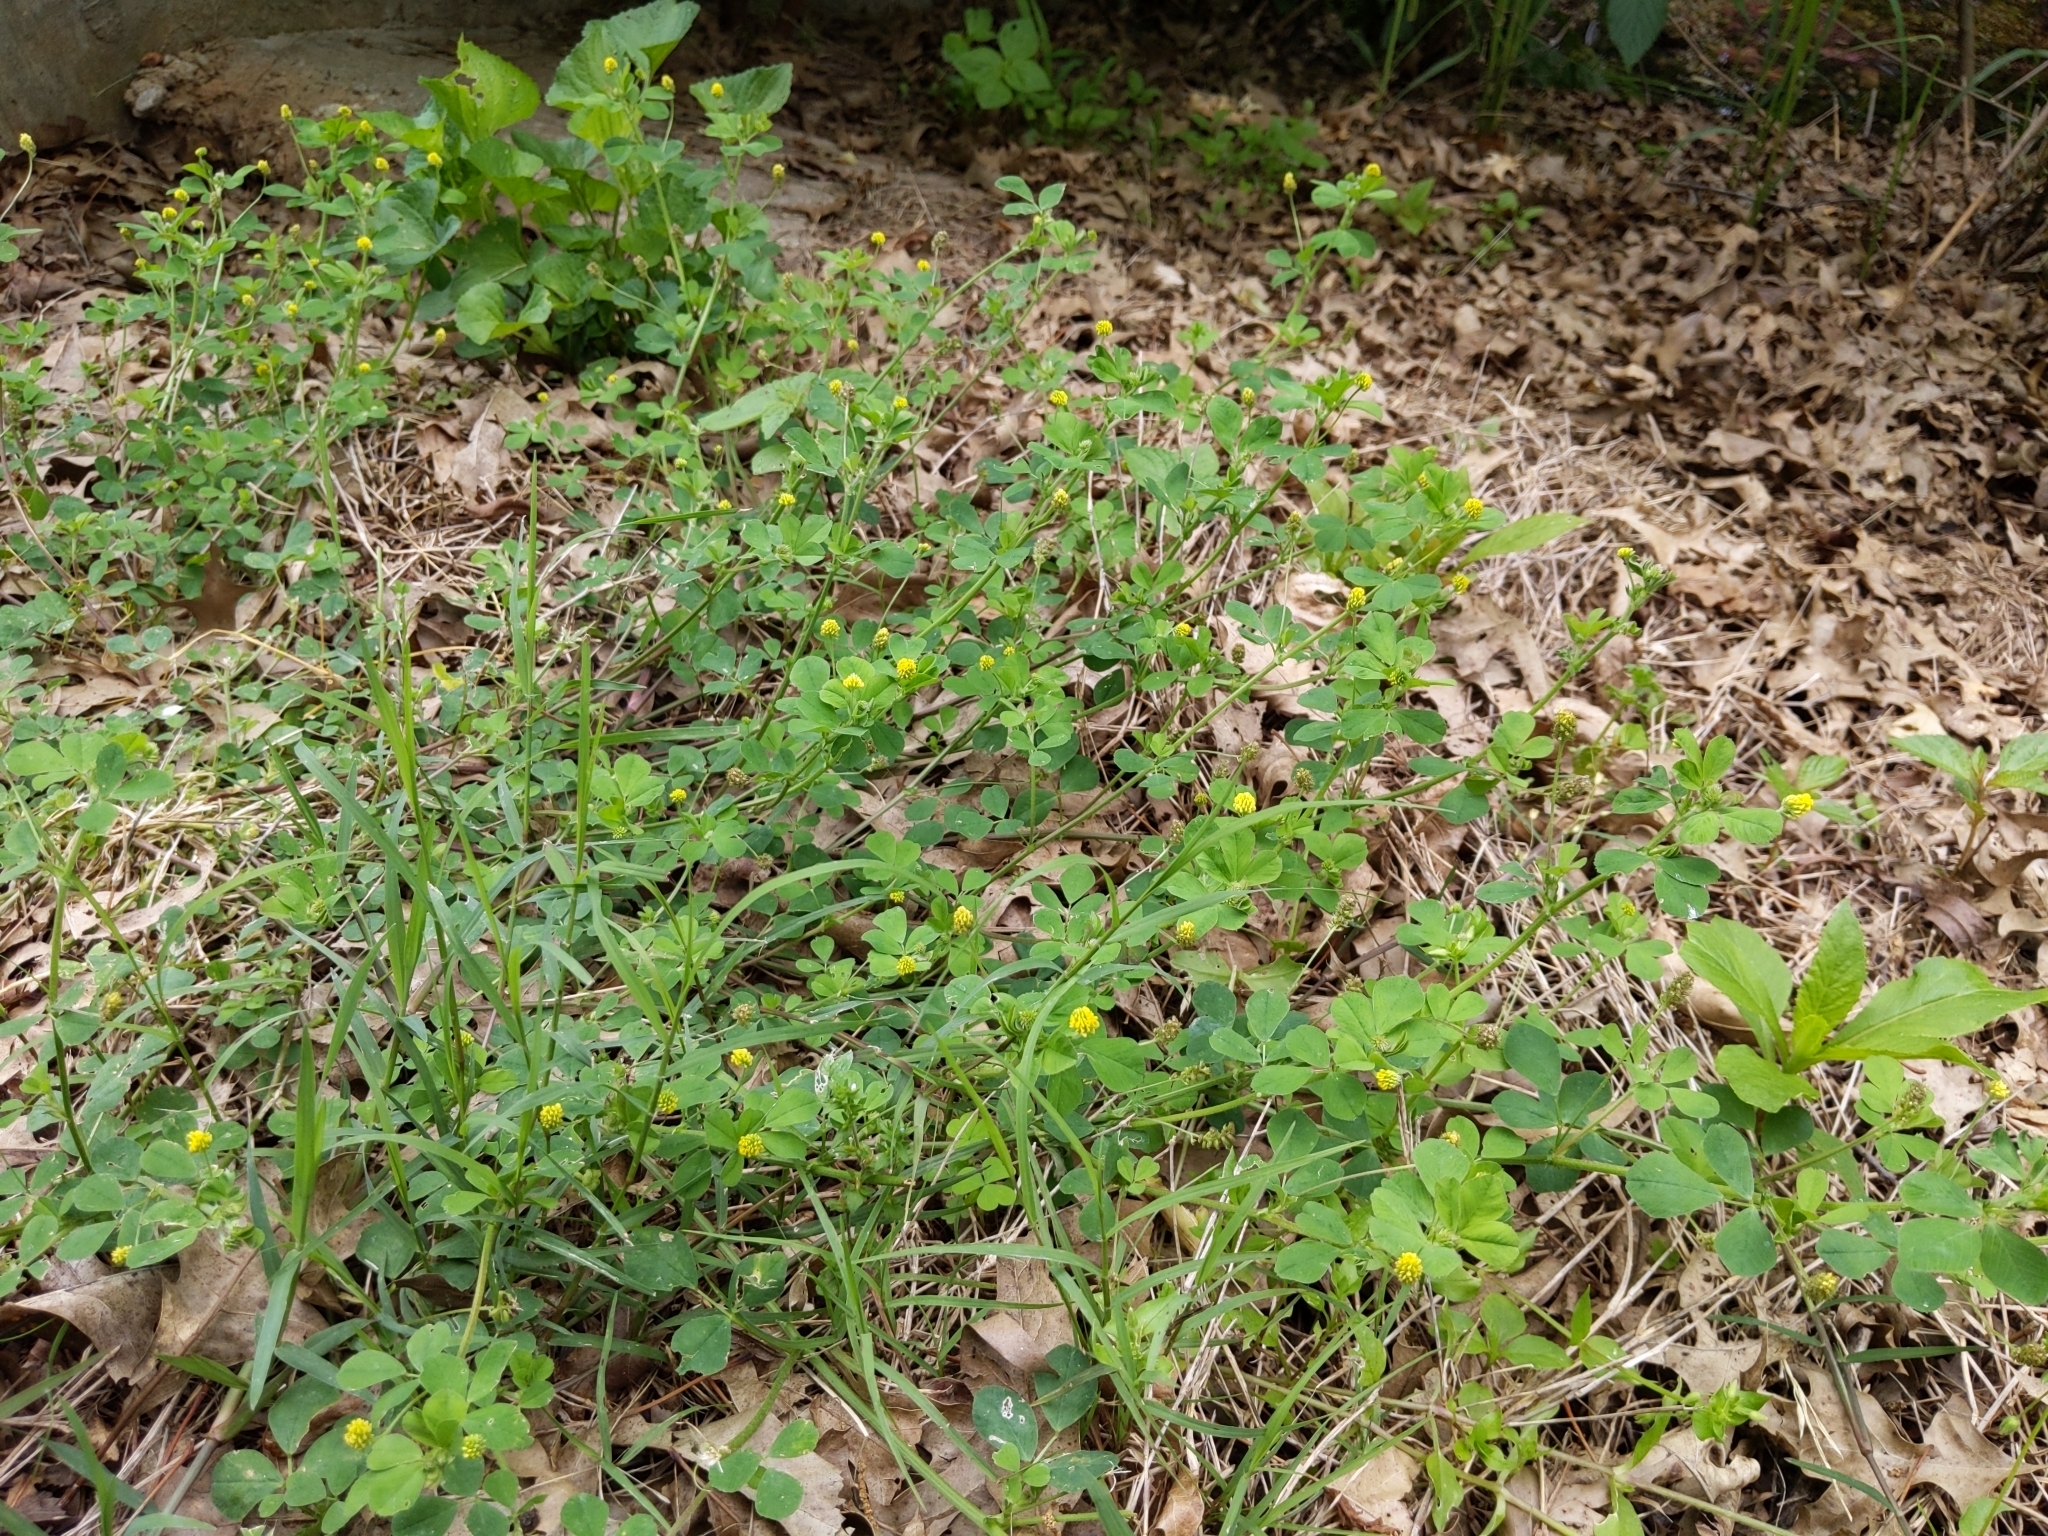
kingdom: Plantae
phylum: Tracheophyta
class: Magnoliopsida
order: Fabales
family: Fabaceae
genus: Medicago
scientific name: Medicago lupulina
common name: Black medick
